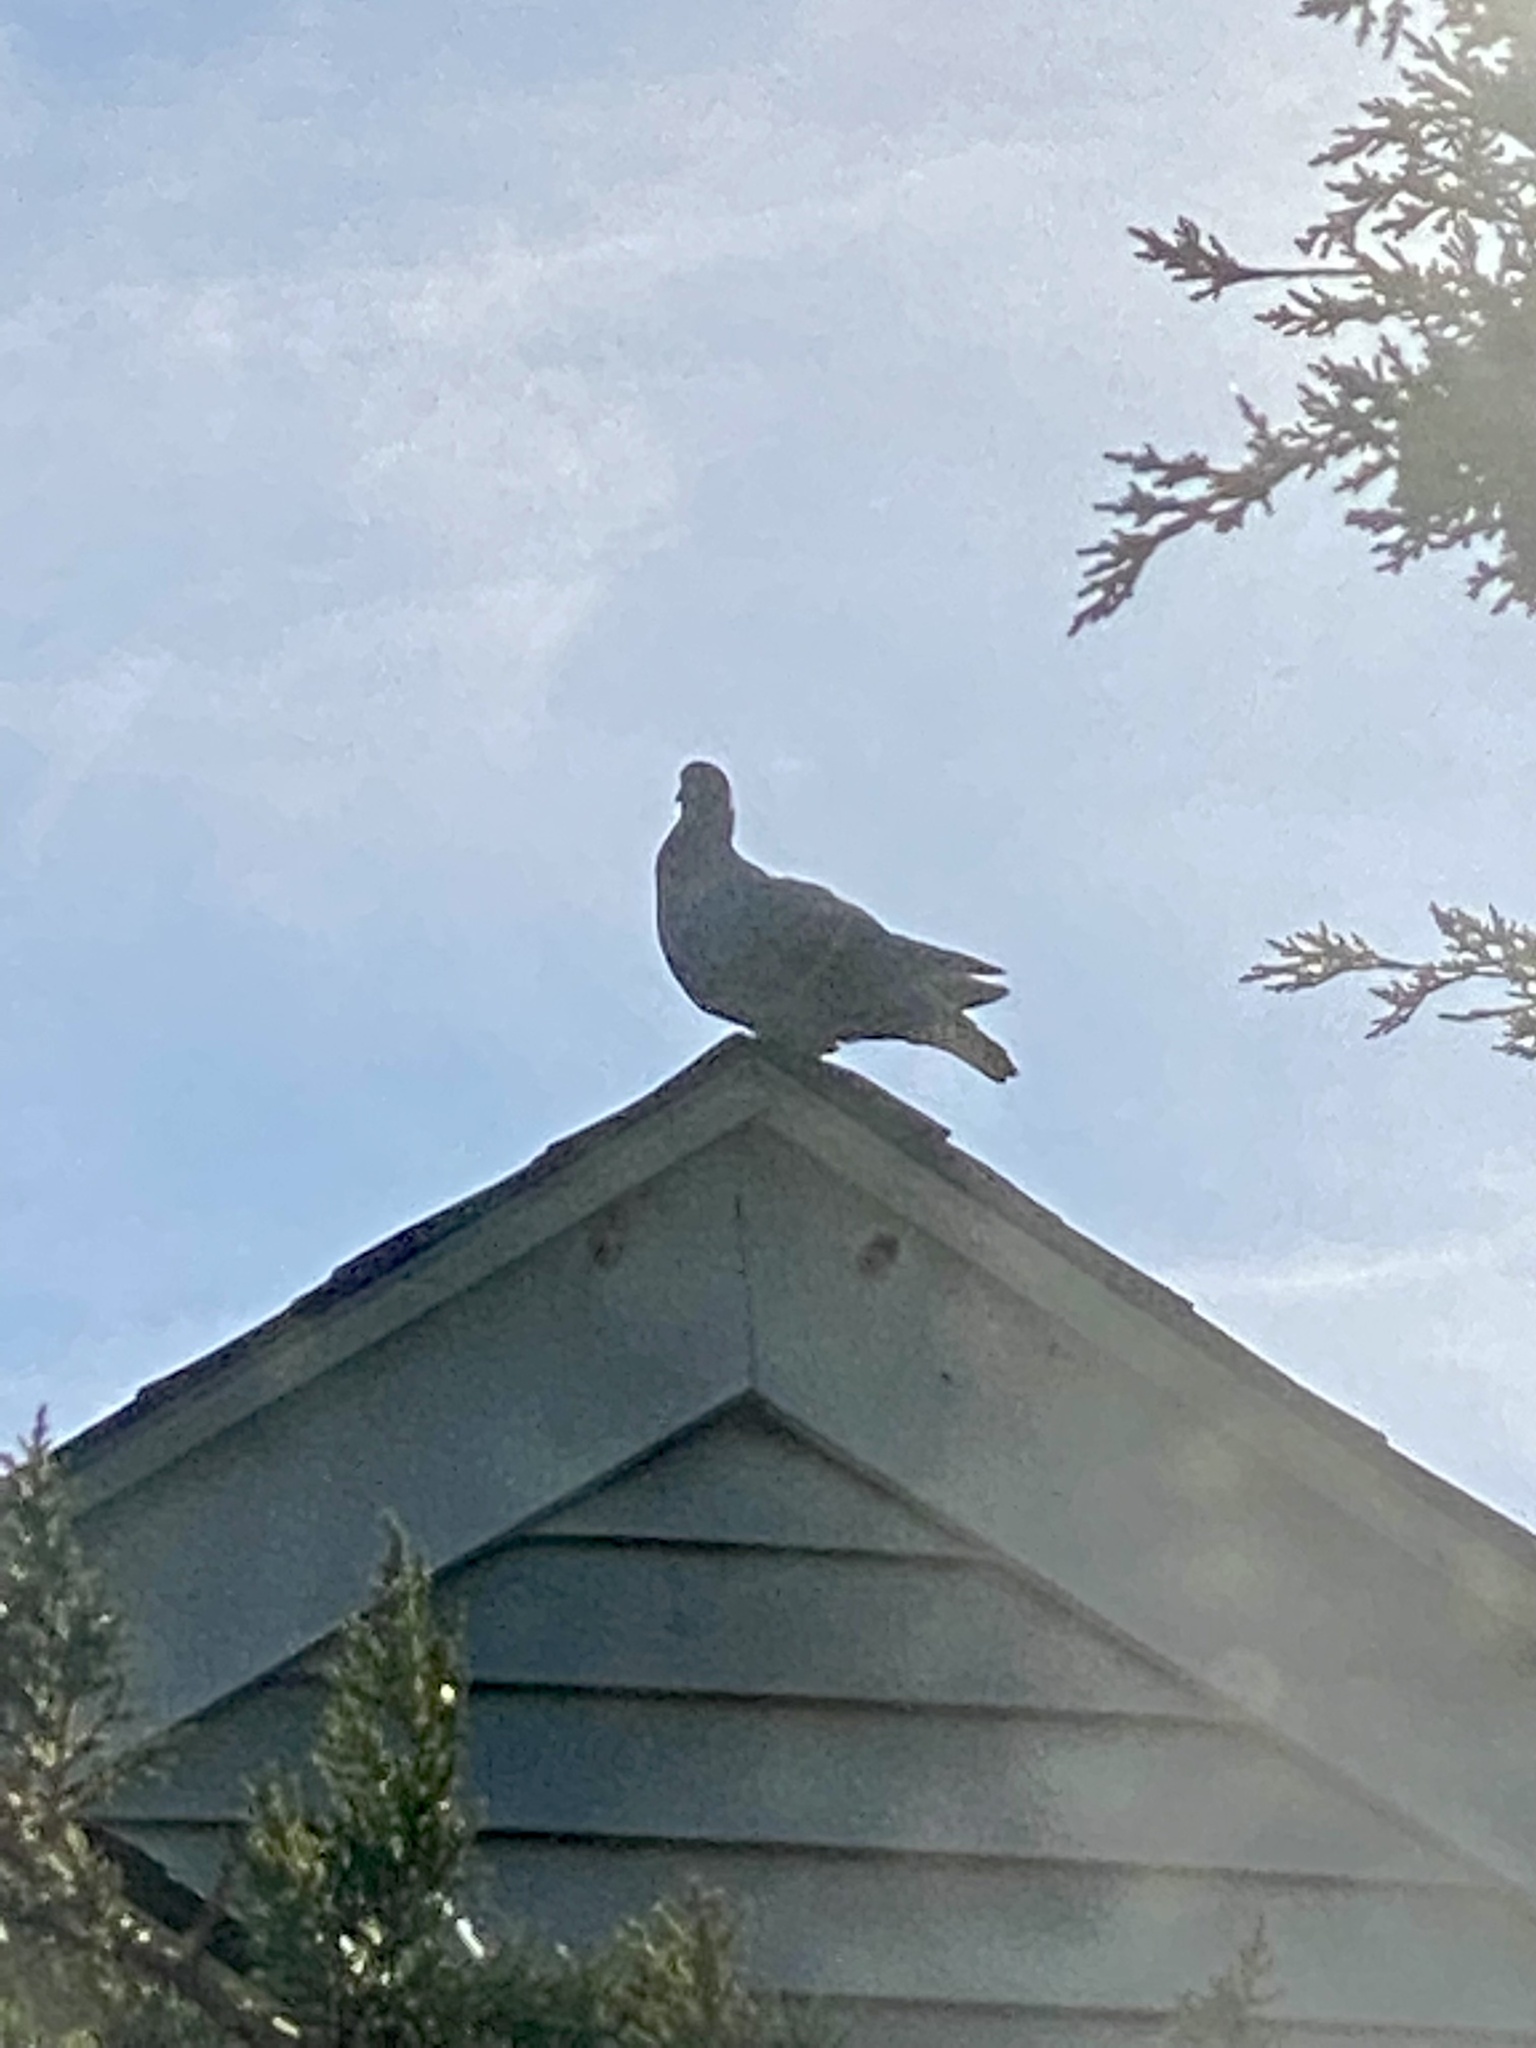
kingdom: Animalia
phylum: Chordata
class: Aves
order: Columbiformes
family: Columbidae
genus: Columba
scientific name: Columba livia
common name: Rock pigeon
